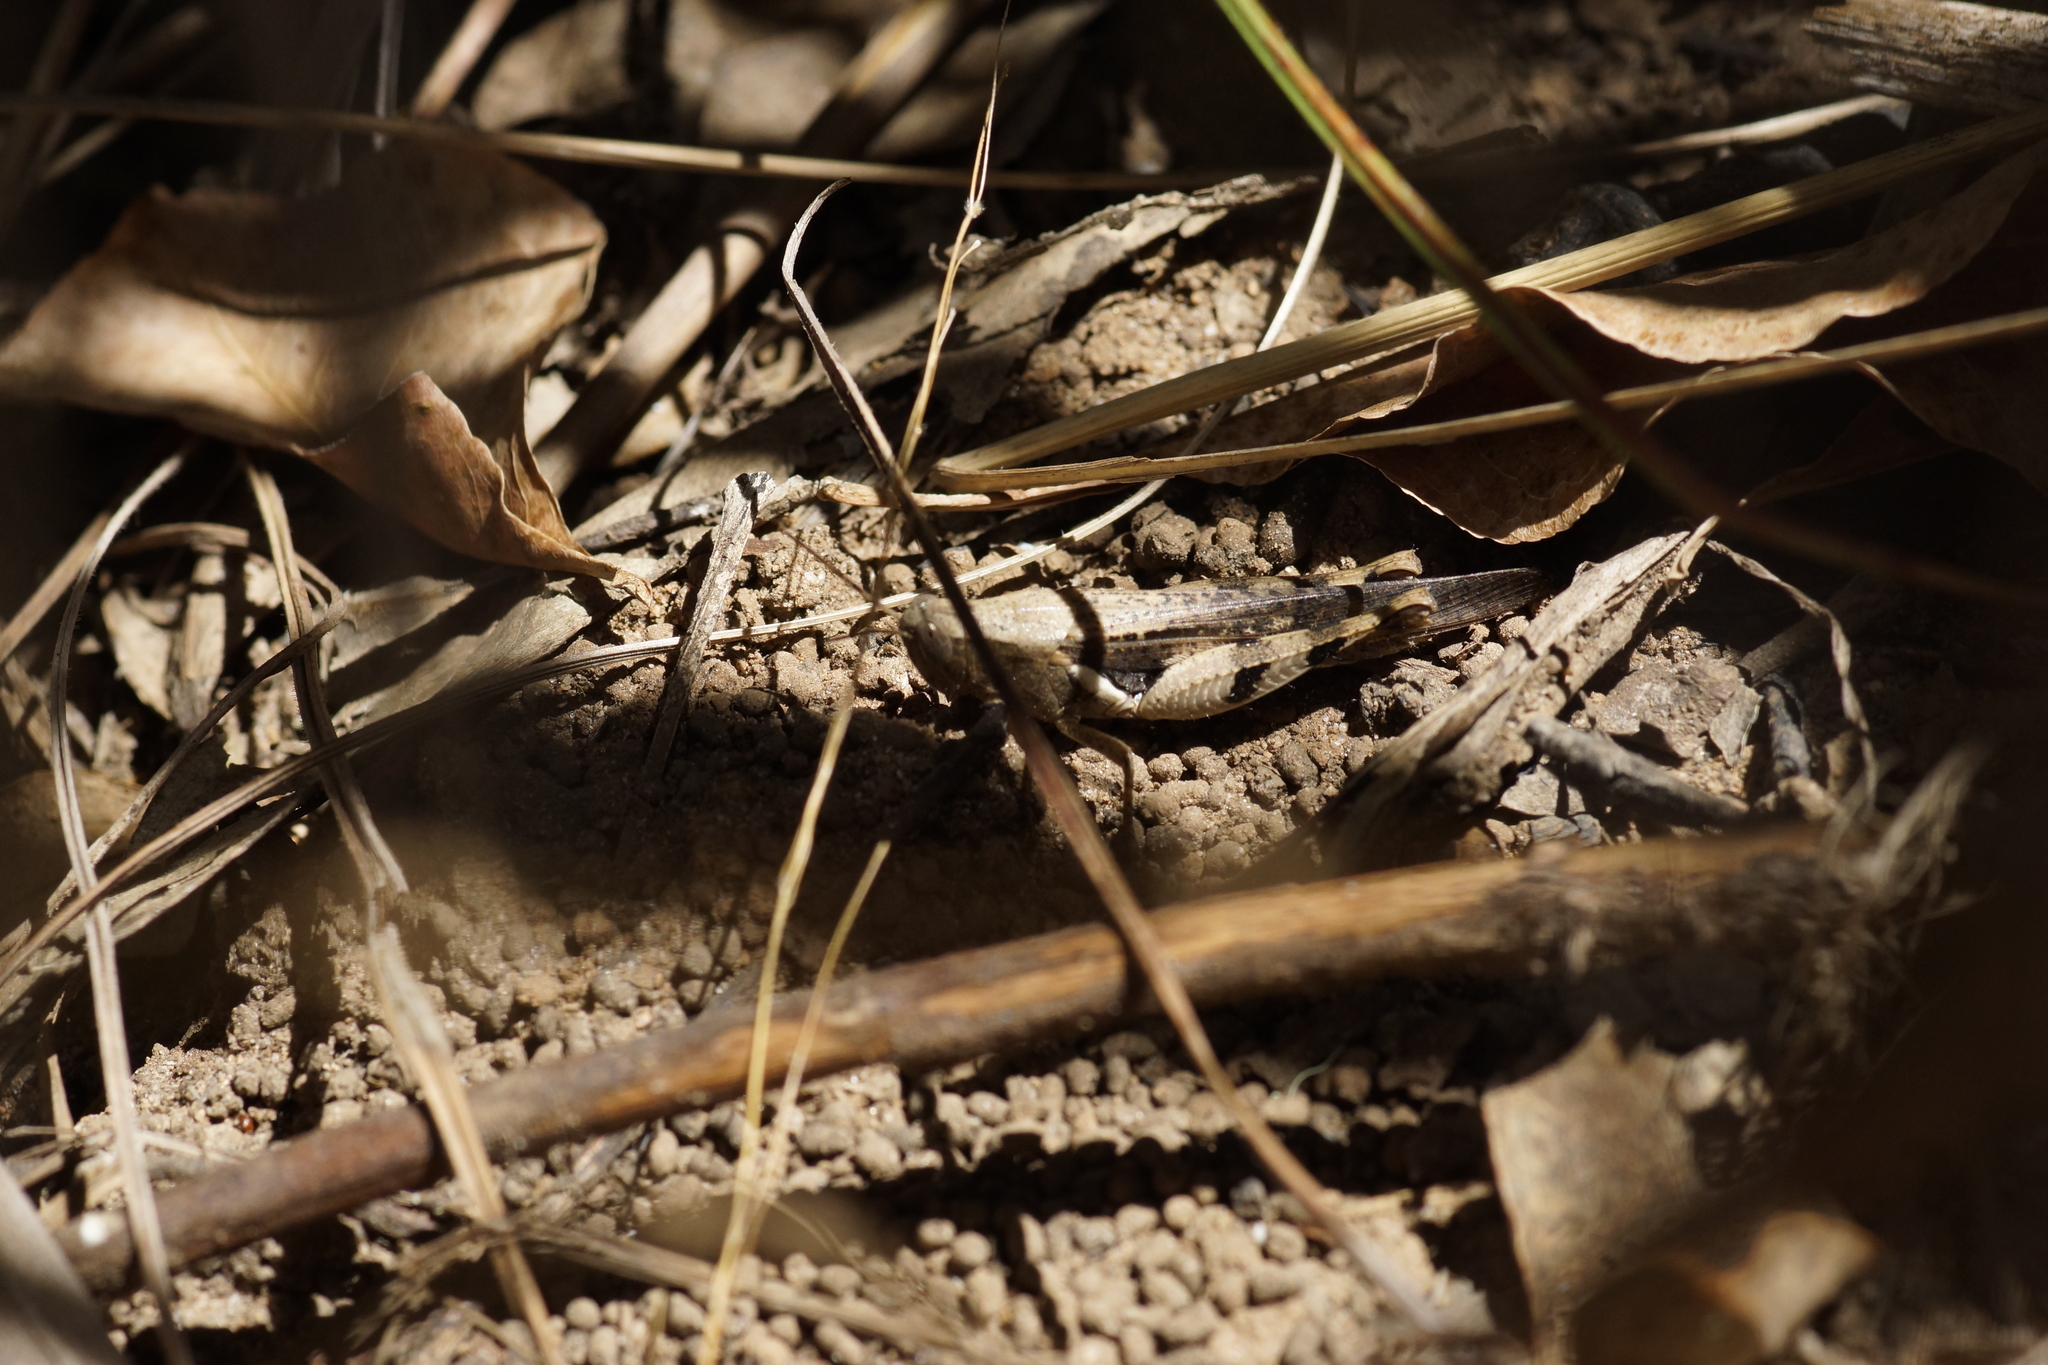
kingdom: Animalia
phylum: Arthropoda
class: Insecta
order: Orthoptera
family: Acrididae
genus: Stenocatantops
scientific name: Stenocatantops angustifrons
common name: Common tropical sharptail
